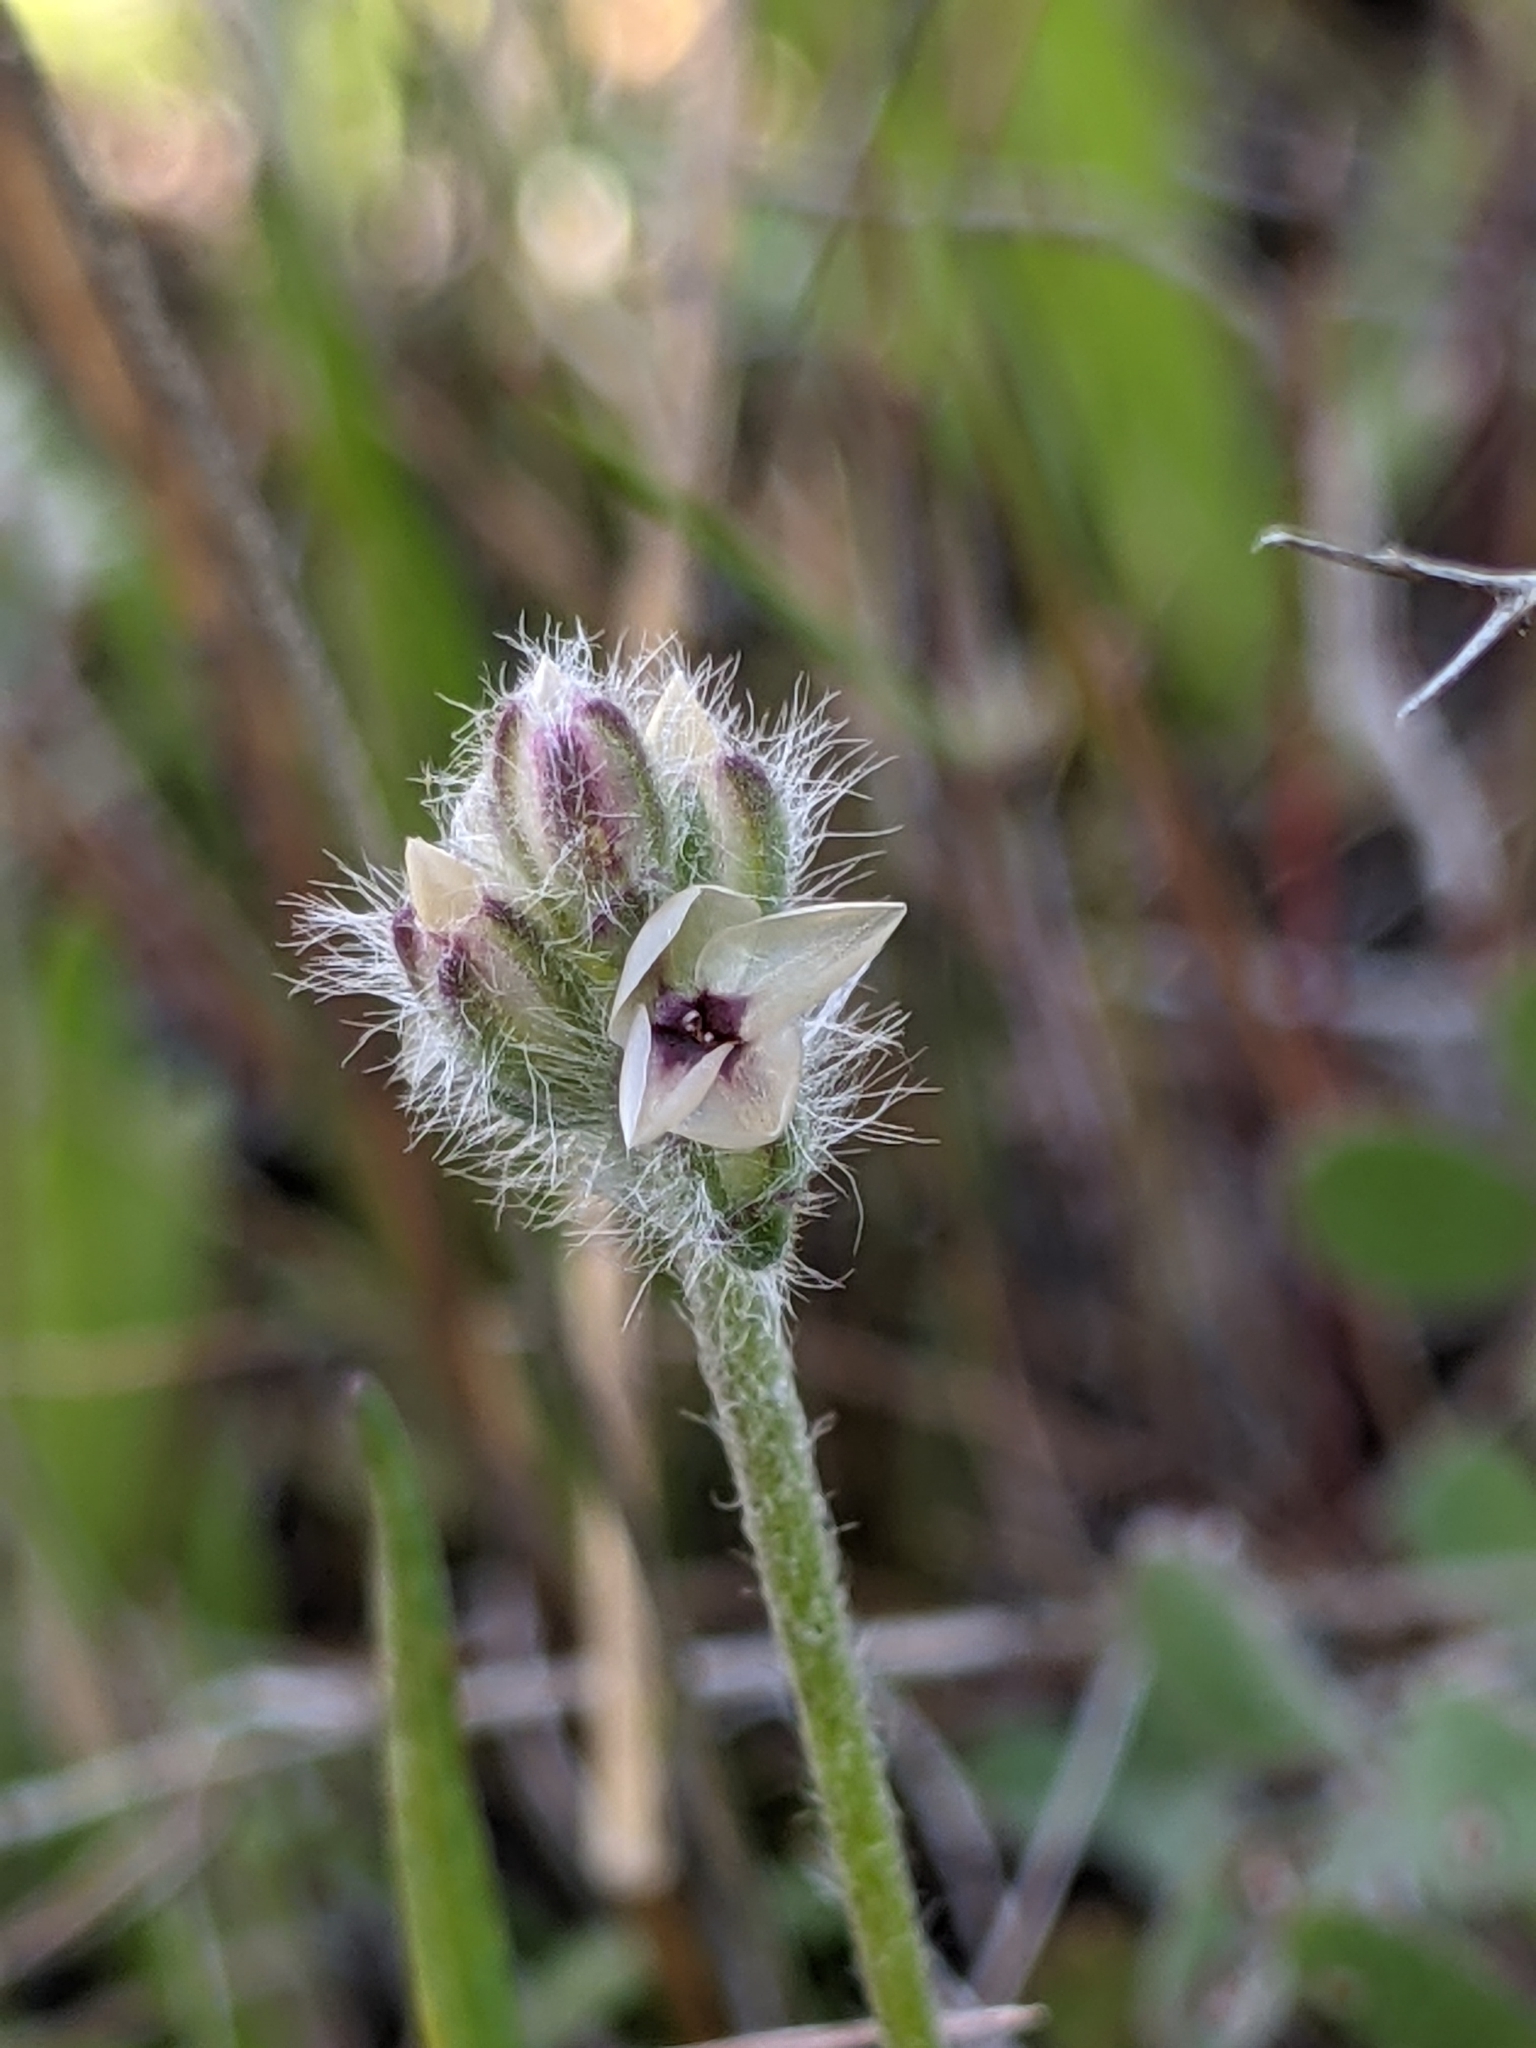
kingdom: Plantae
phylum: Tracheophyta
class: Magnoliopsida
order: Lamiales
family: Plantaginaceae
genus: Plantago
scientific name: Plantago erecta
